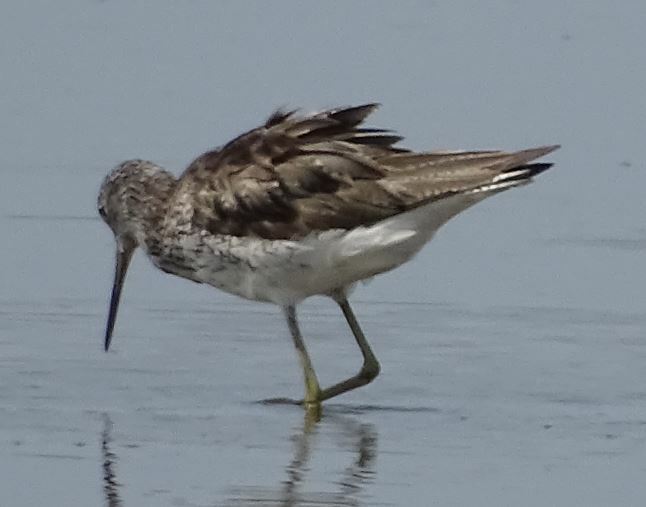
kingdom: Animalia
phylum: Chordata
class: Aves
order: Charadriiformes
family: Scolopacidae
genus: Tringa
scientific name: Tringa nebularia
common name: Common greenshank
